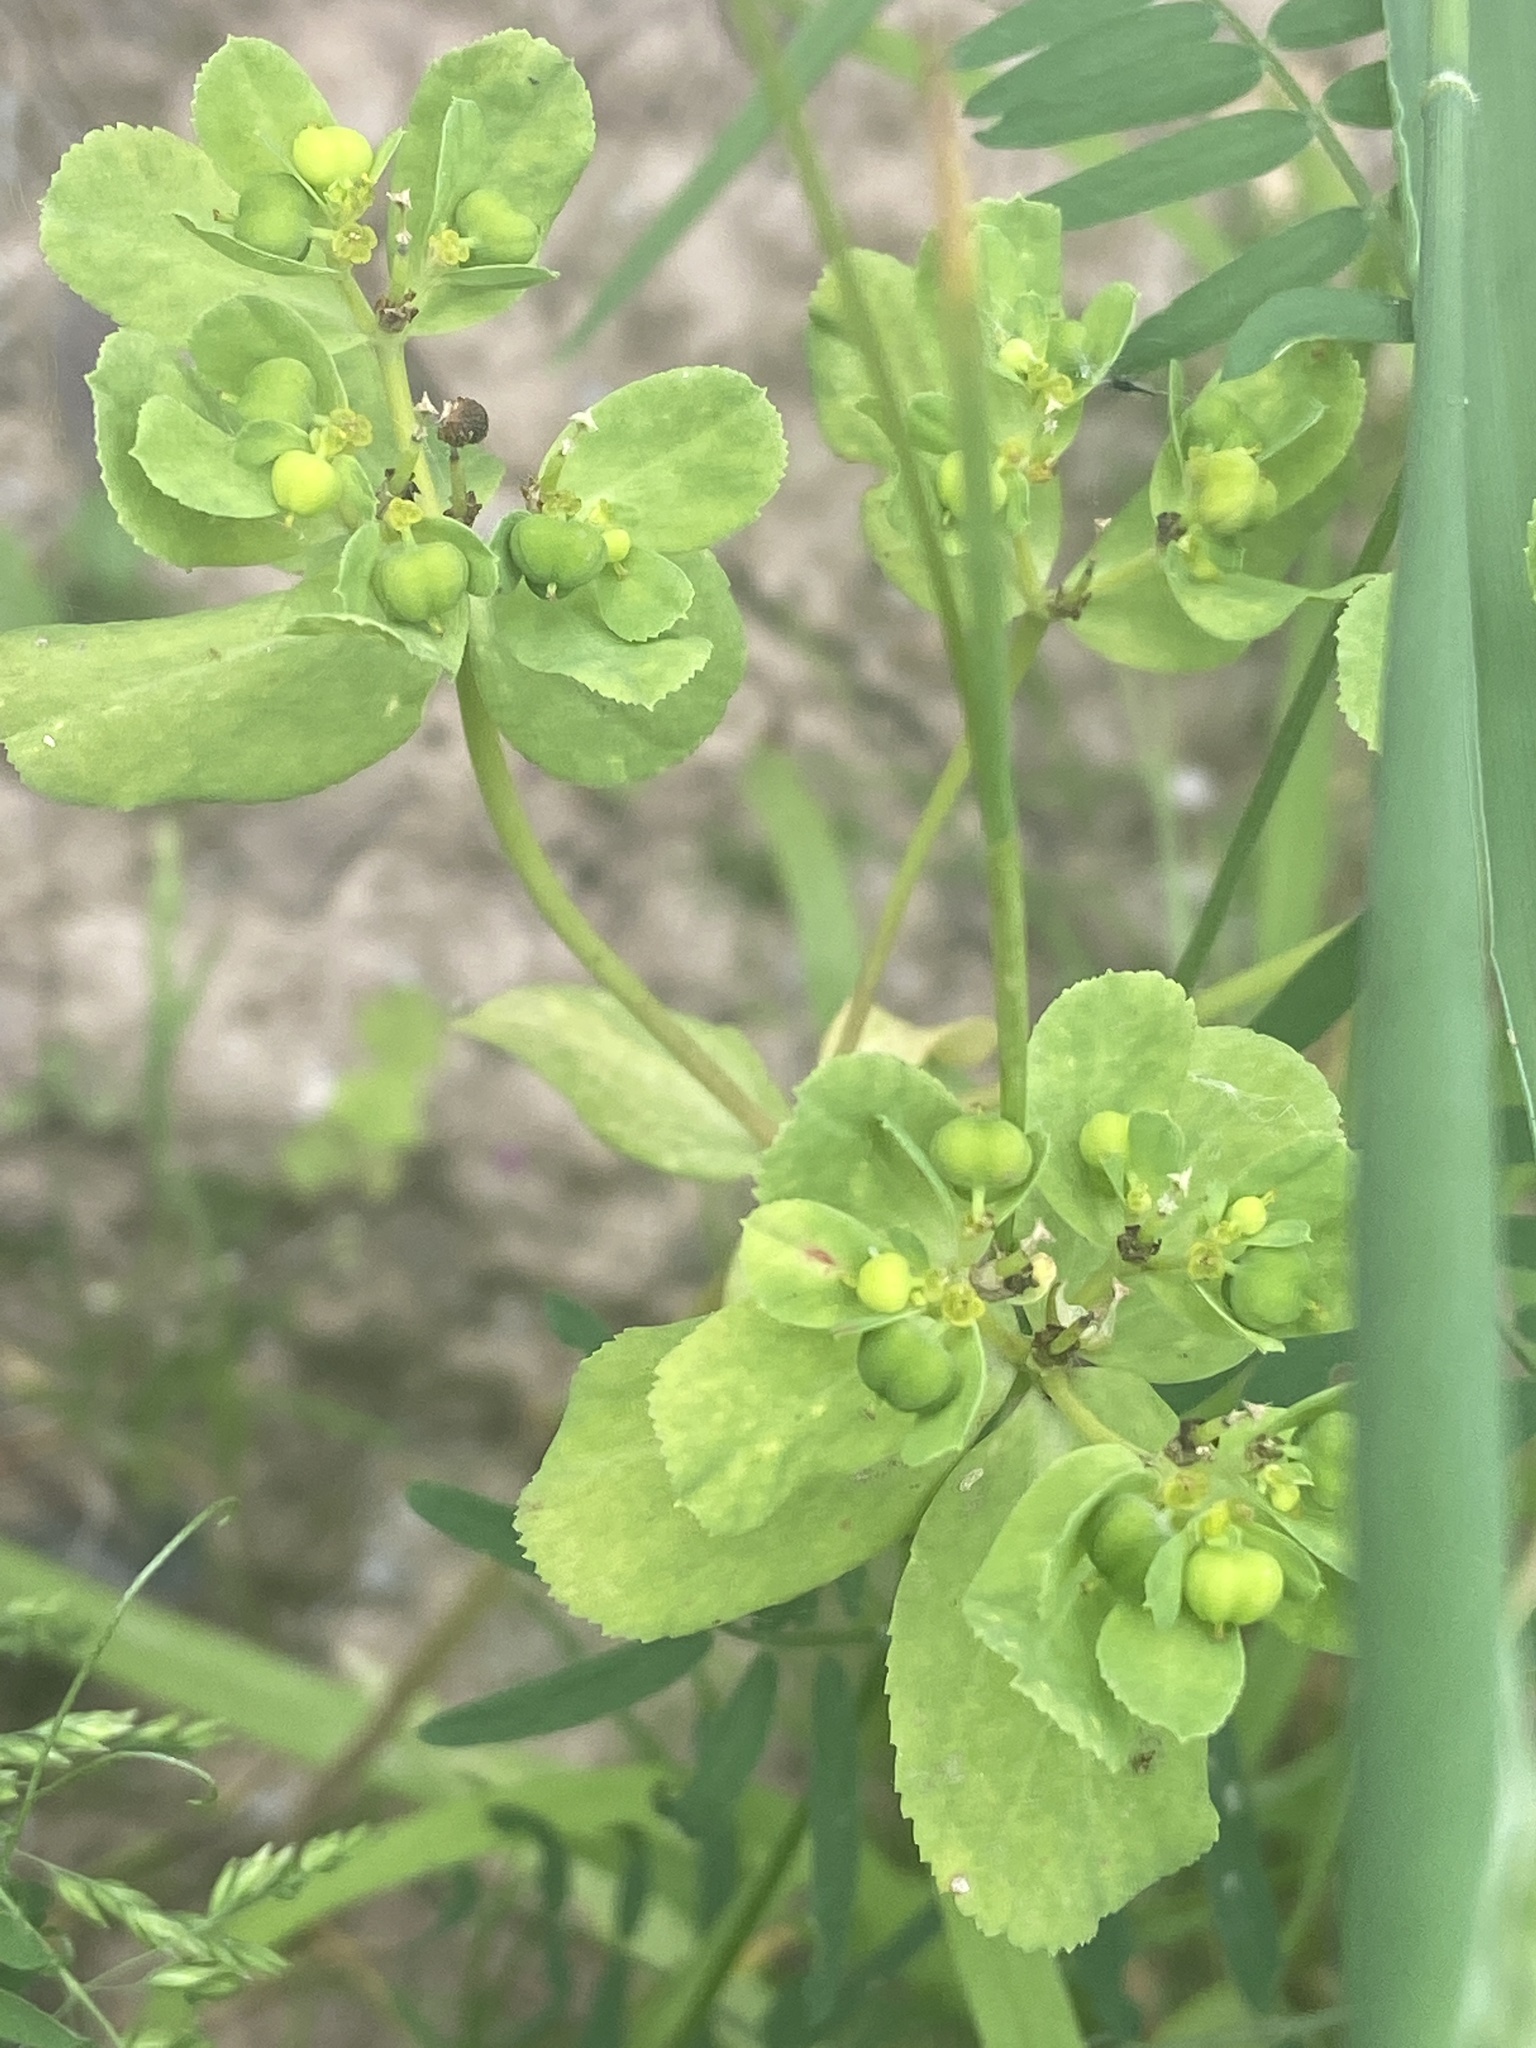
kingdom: Plantae
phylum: Tracheophyta
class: Magnoliopsida
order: Malpighiales
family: Euphorbiaceae
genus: Euphorbia
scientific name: Euphorbia helioscopia
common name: Sun spurge
